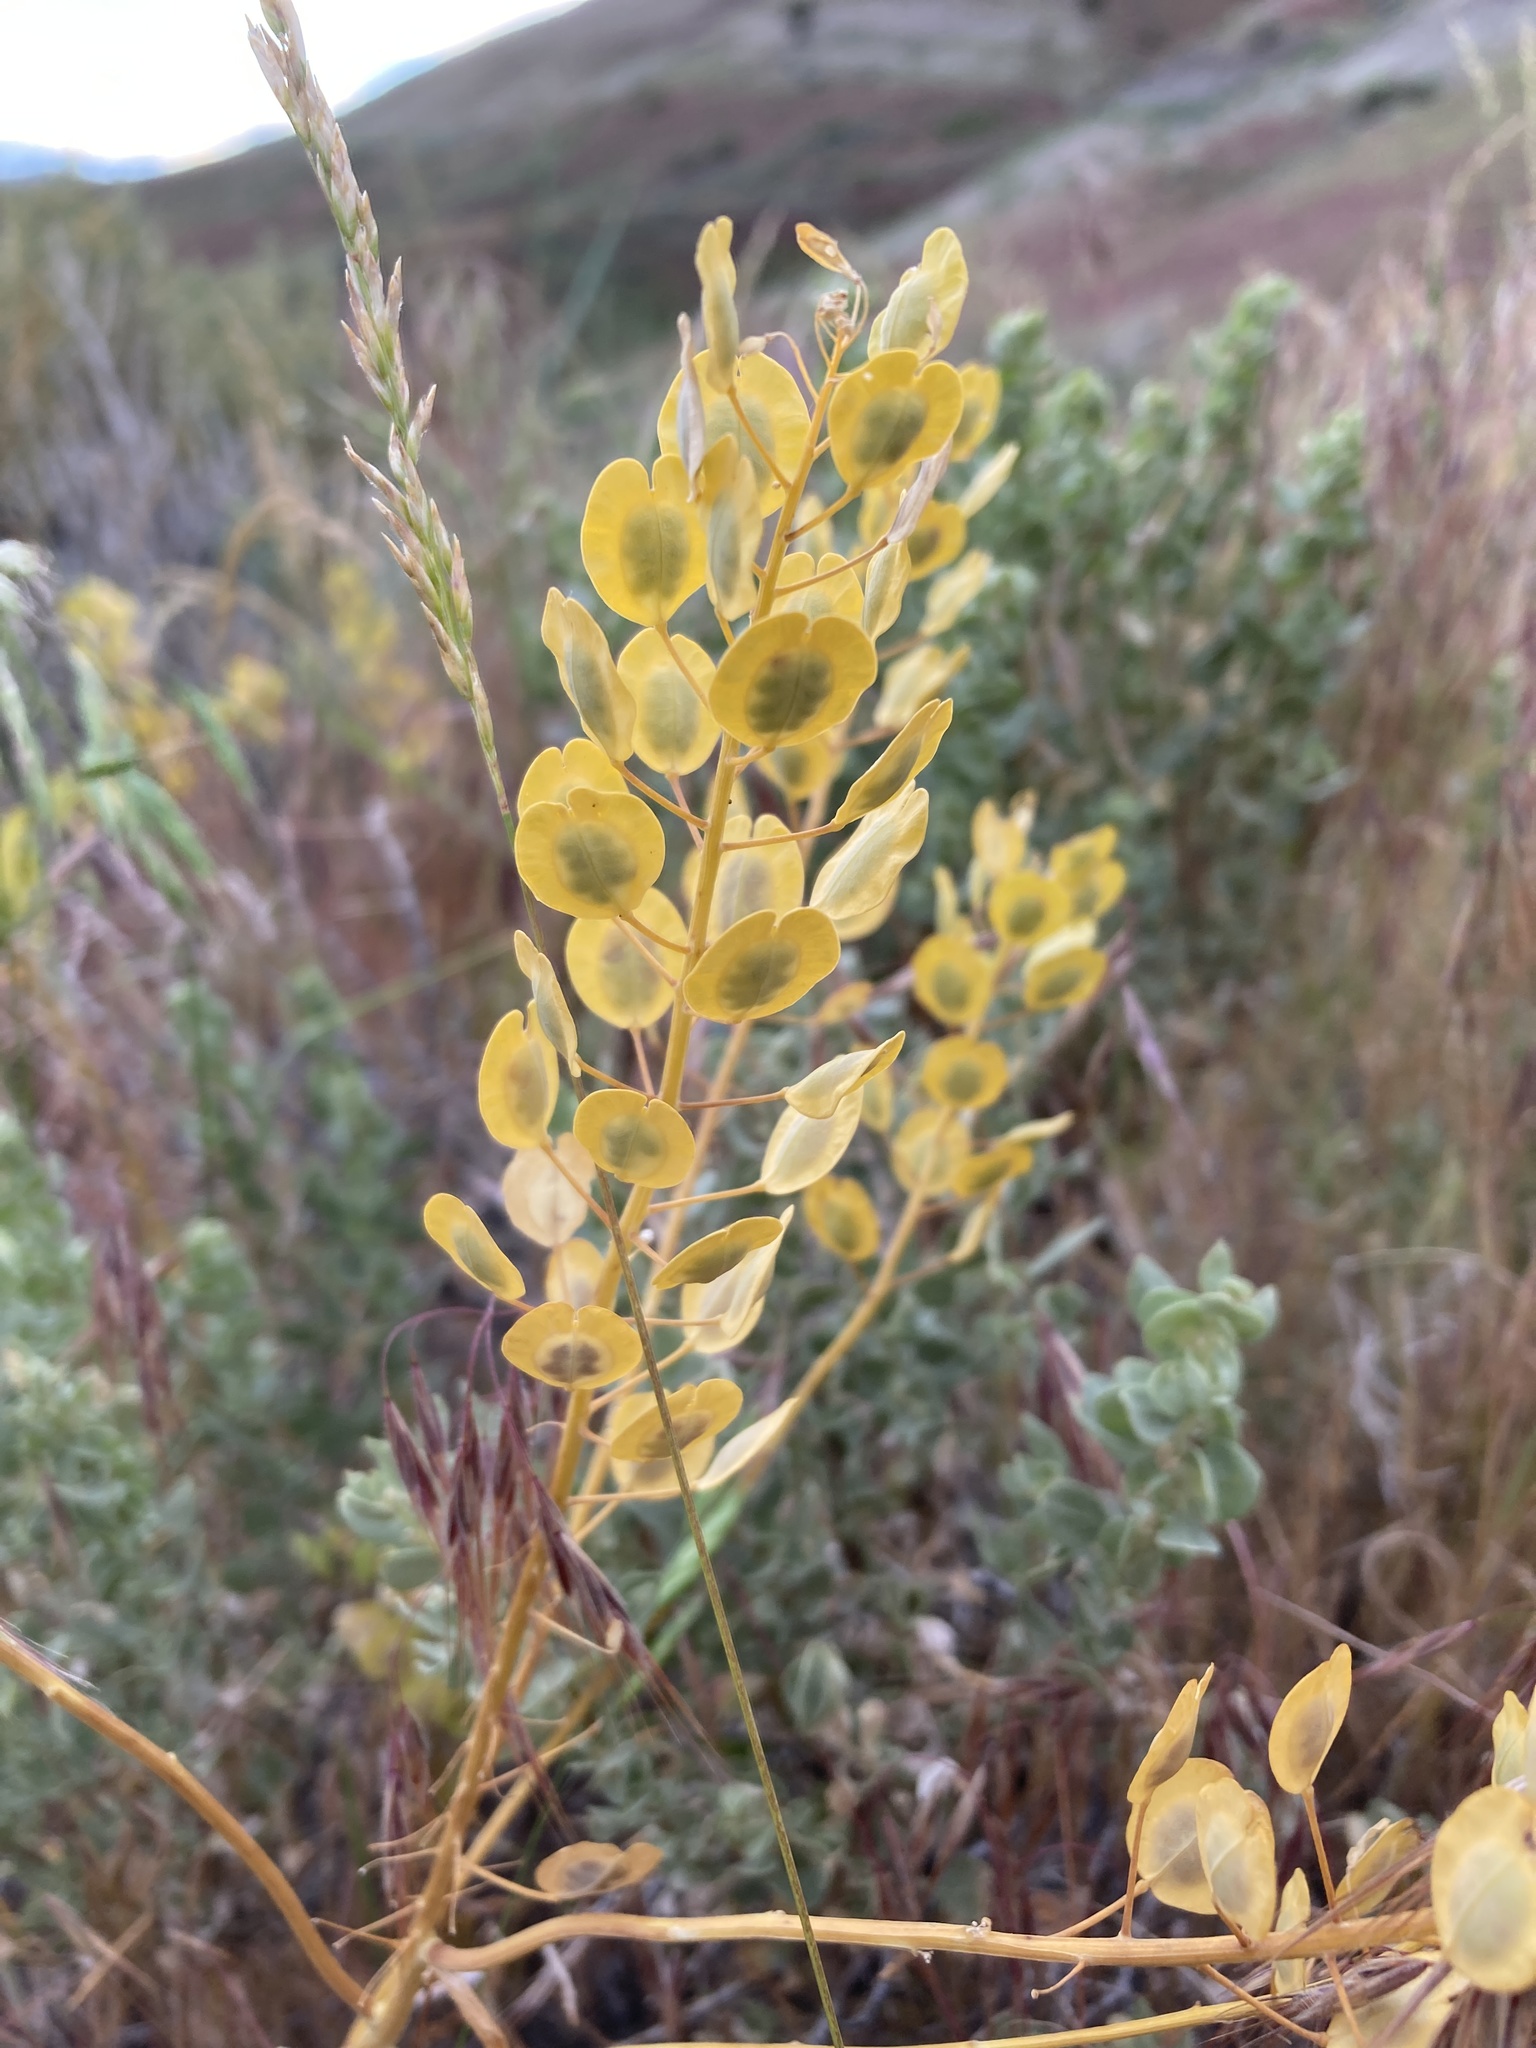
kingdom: Plantae
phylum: Tracheophyta
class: Magnoliopsida
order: Brassicales
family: Brassicaceae
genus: Thlaspi
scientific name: Thlaspi arvense
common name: Field pennycress
